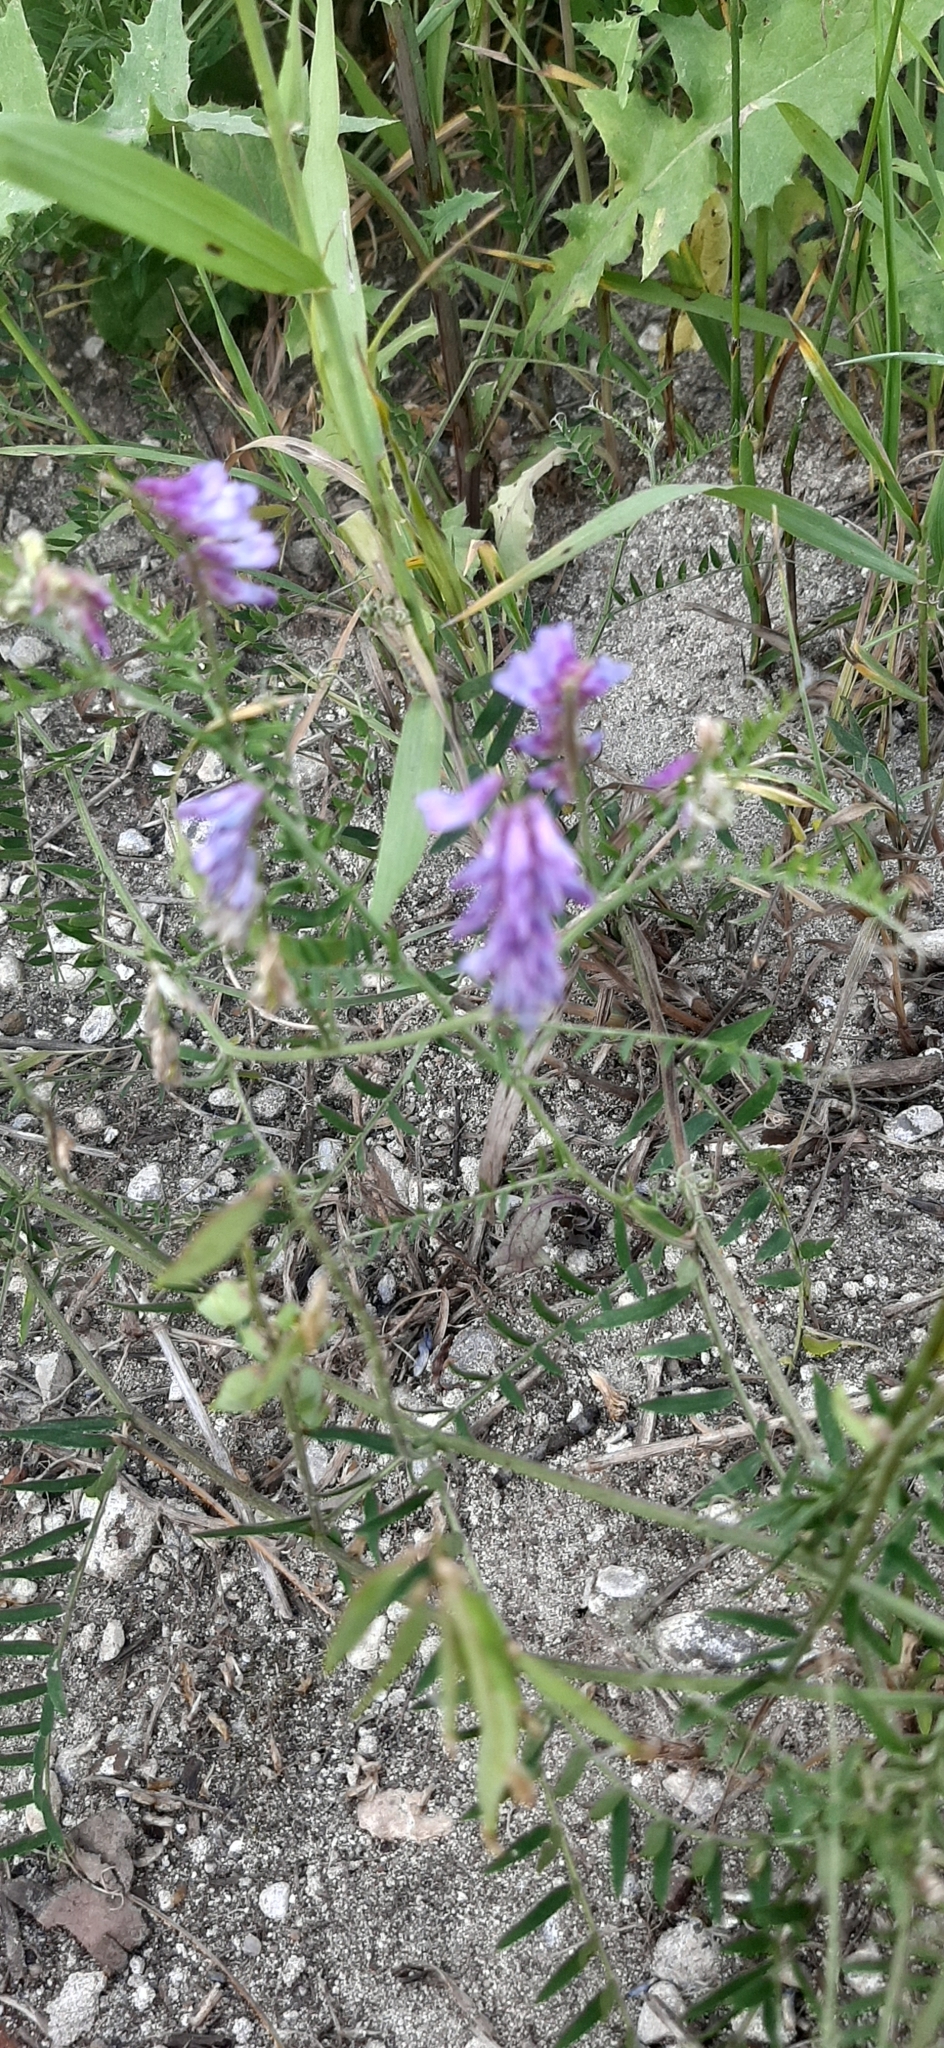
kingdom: Plantae
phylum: Tracheophyta
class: Magnoliopsida
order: Fabales
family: Fabaceae
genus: Vicia
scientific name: Vicia cracca
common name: Bird vetch
